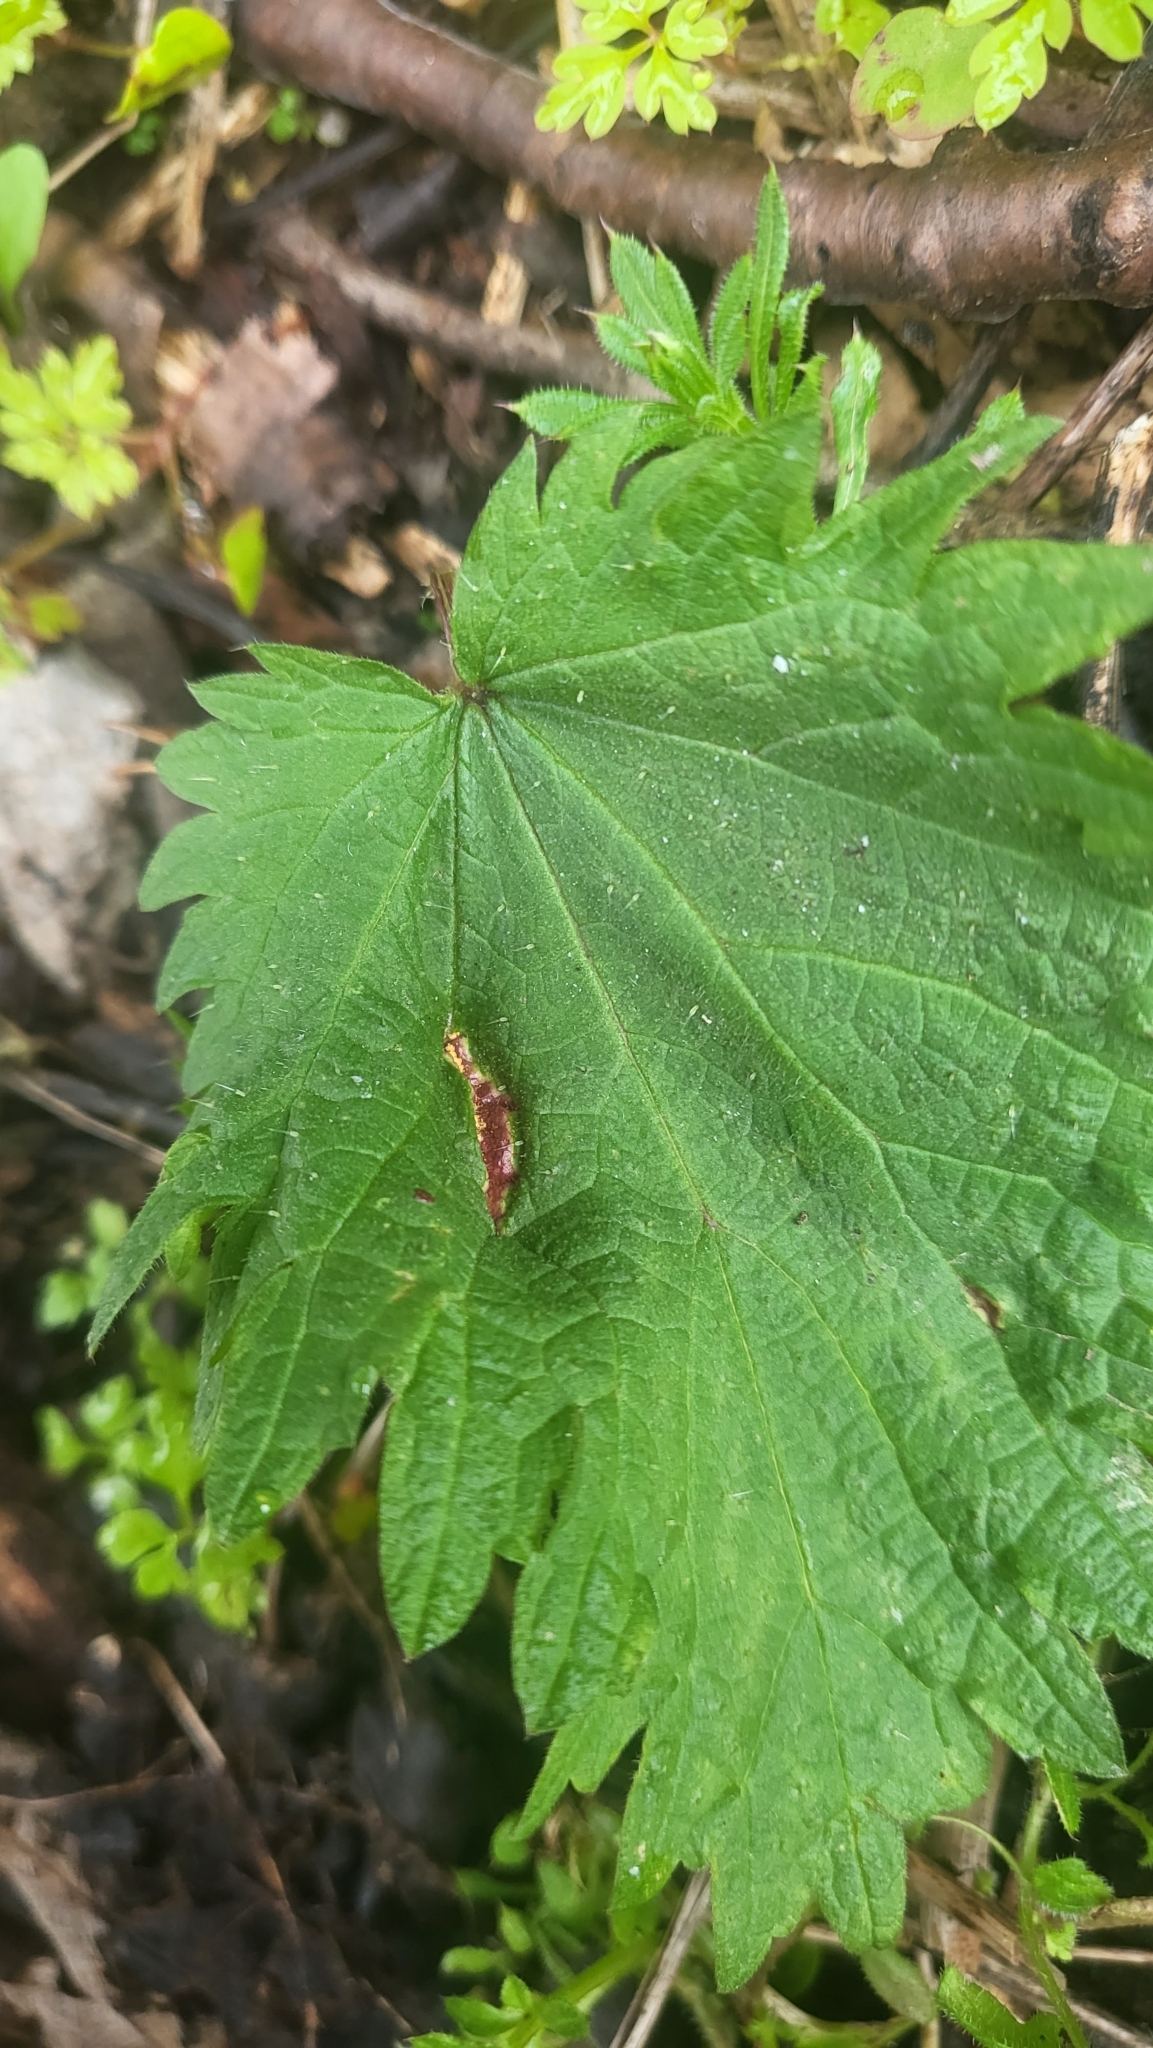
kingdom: Fungi
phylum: Basidiomycota
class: Pucciniomycetes
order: Pucciniales
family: Pucciniaceae
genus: Puccinia
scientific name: Puccinia urticata
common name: Nettle clustercup rust fungus
